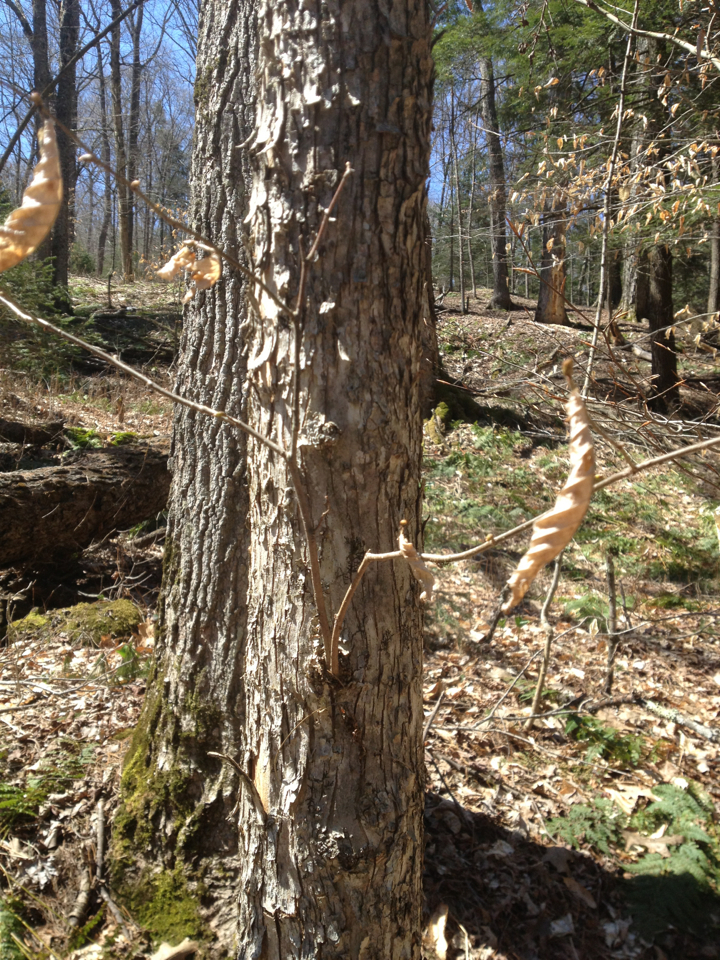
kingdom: Plantae
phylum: Tracheophyta
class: Magnoliopsida
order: Fagales
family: Betulaceae
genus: Ostrya
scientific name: Ostrya virginiana
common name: Ironwood
